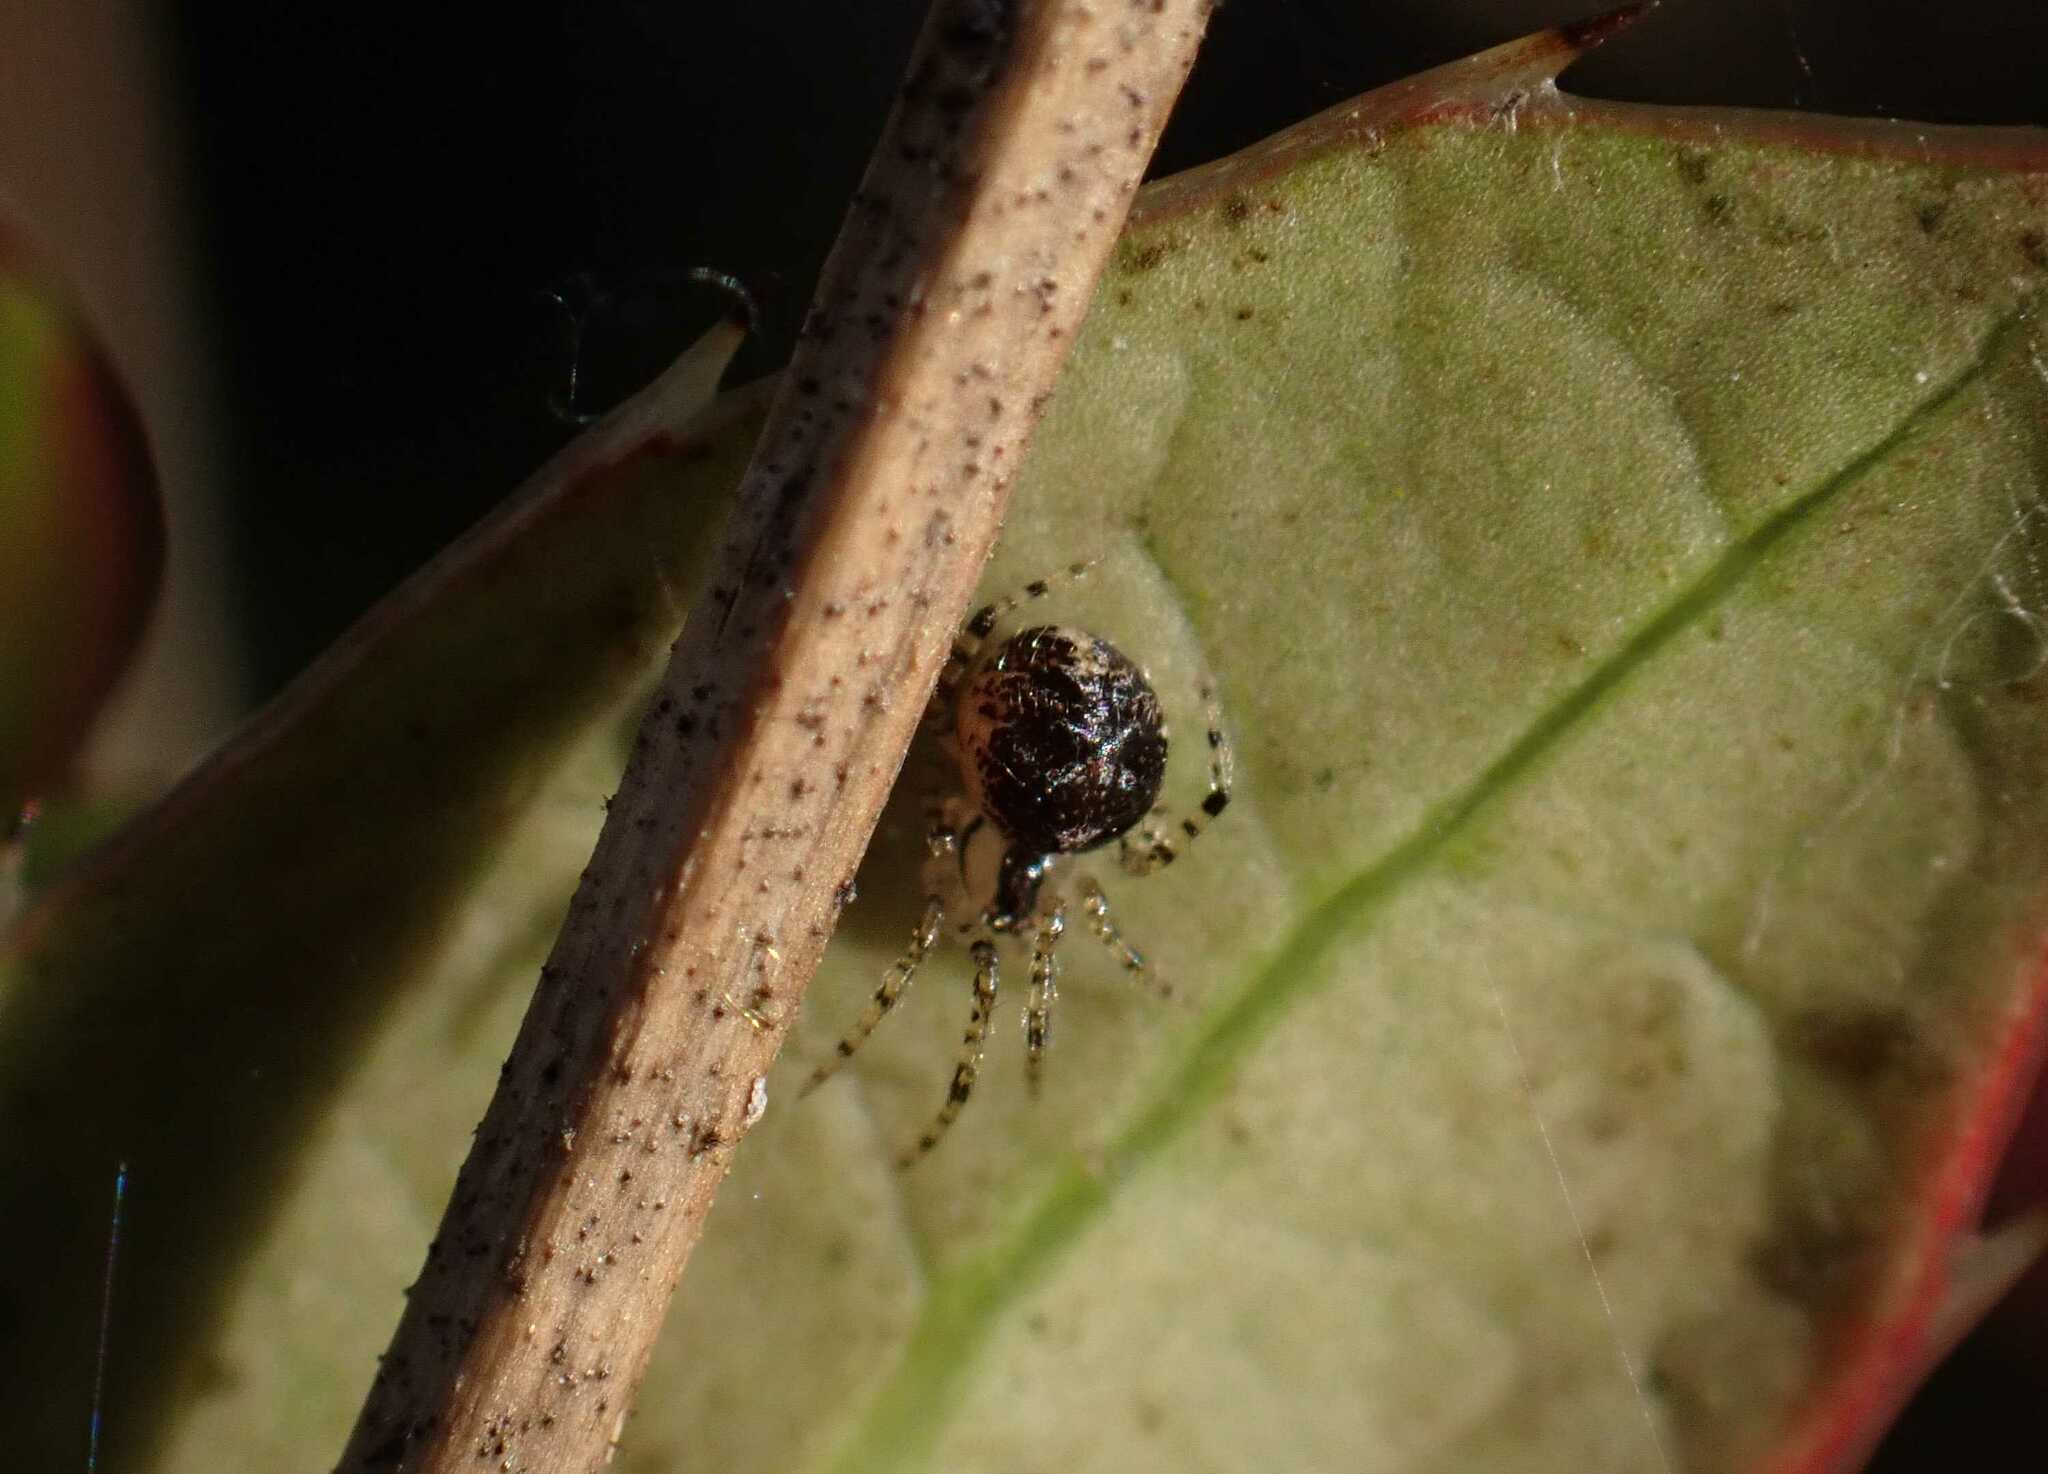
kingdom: Animalia
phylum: Arthropoda
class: Arachnida
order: Araneae
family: Theridiidae
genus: Platnickina
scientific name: Platnickina tincta
